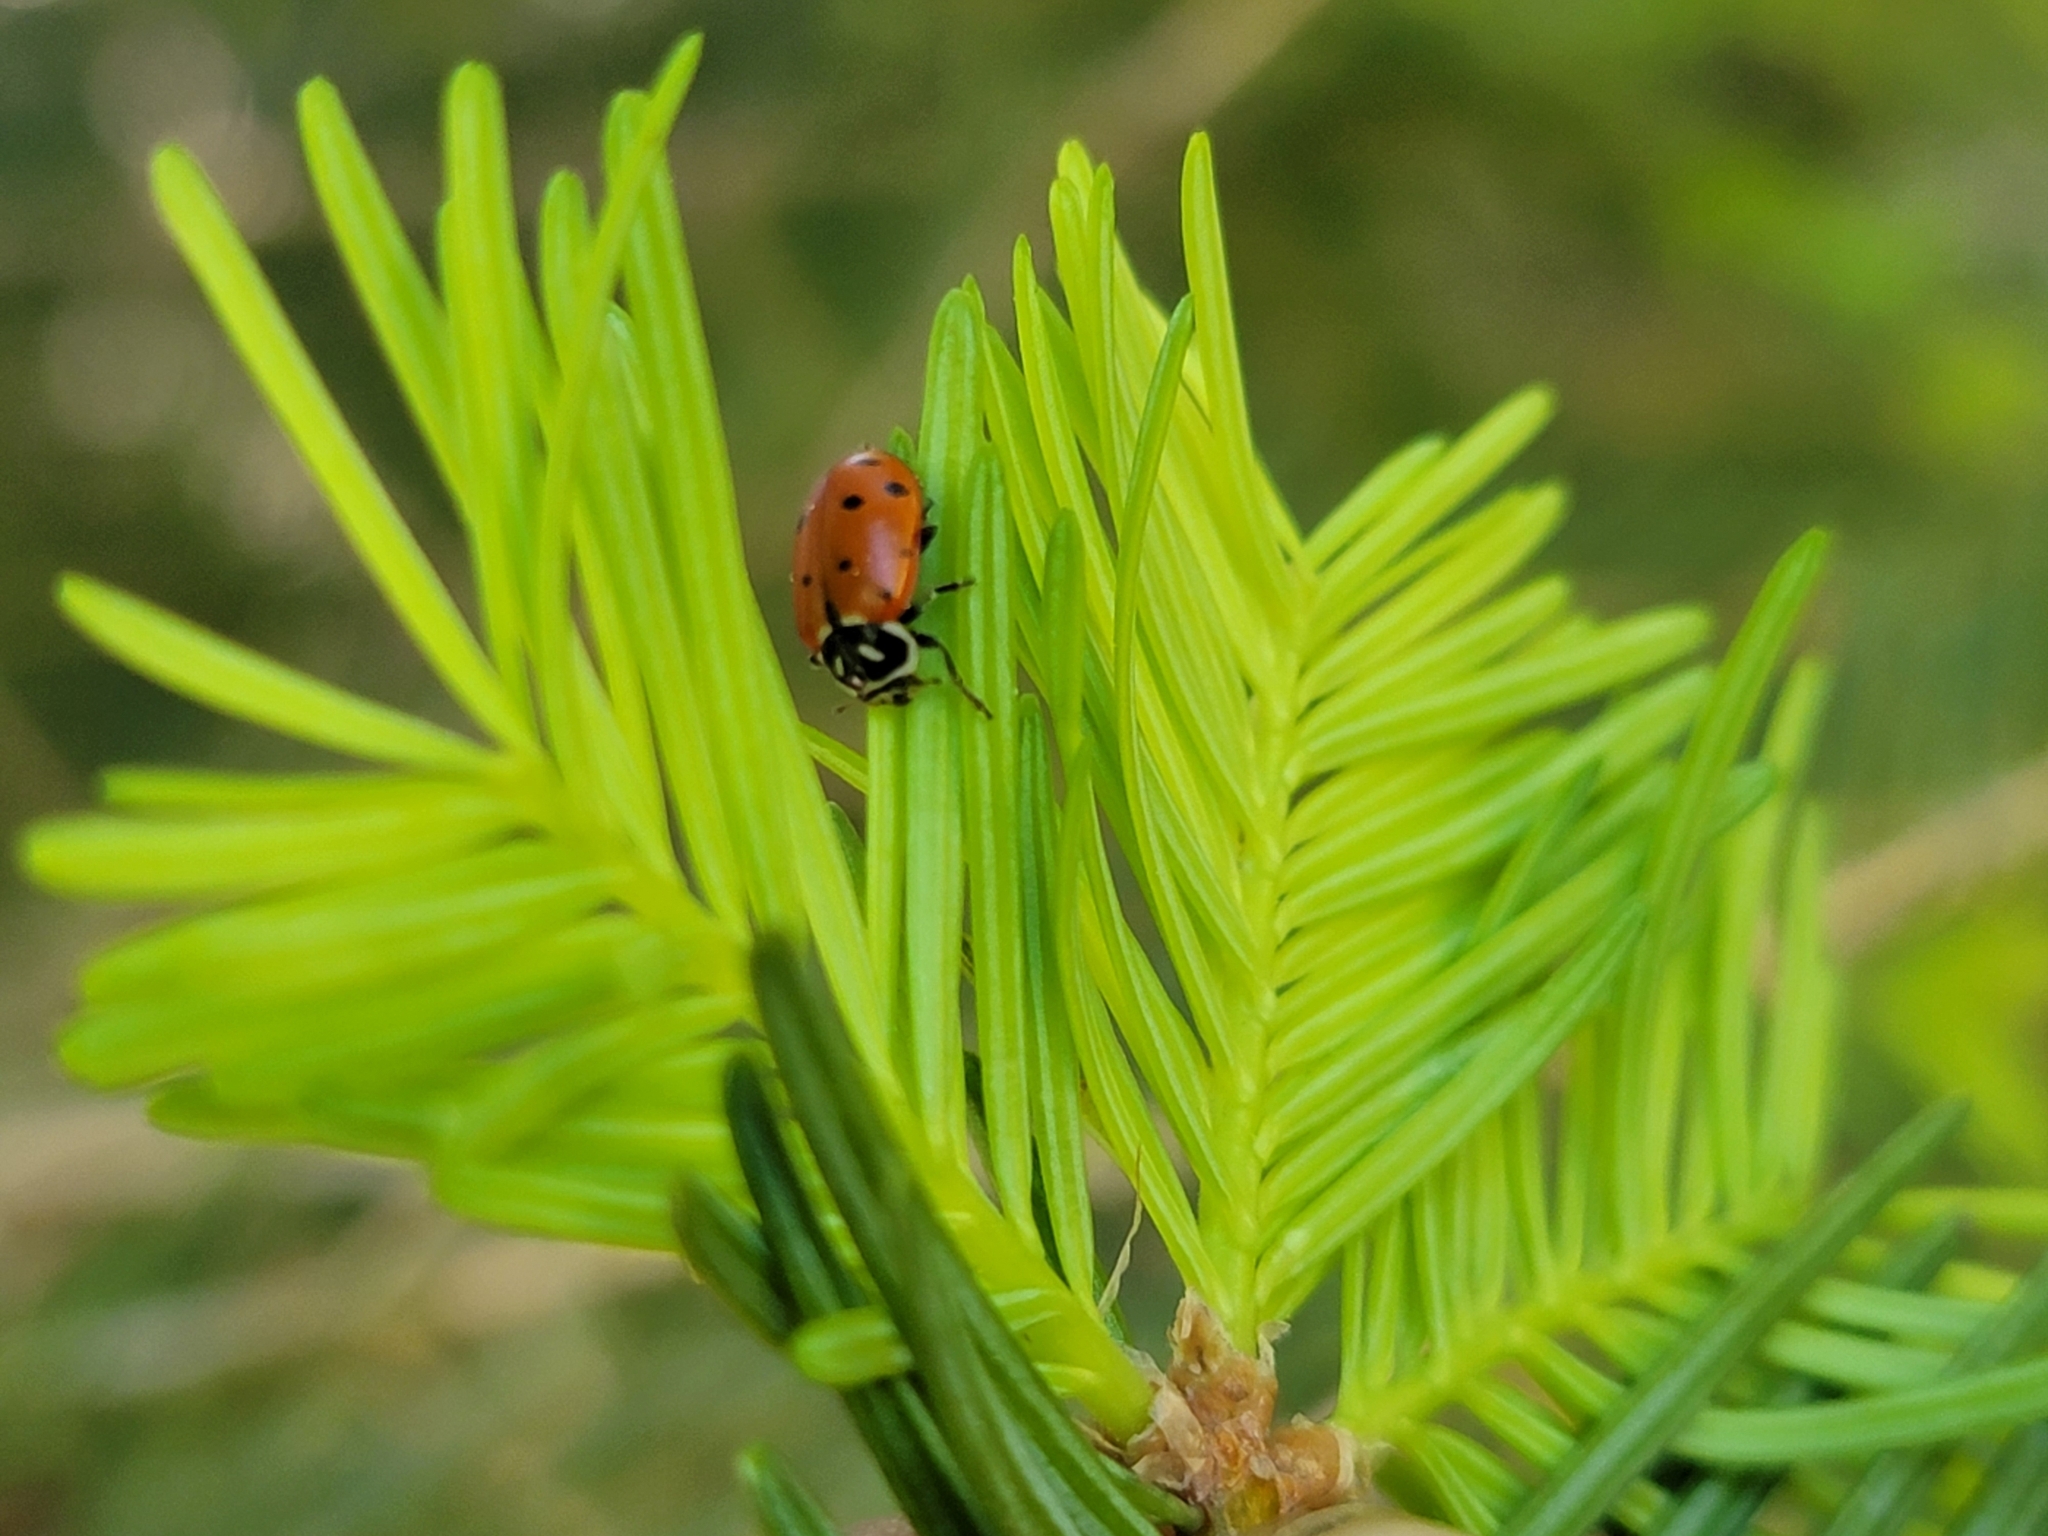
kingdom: Animalia
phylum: Arthropoda
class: Insecta
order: Coleoptera
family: Coccinellidae
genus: Hippodamia
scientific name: Hippodamia convergens
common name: Convergent lady beetle
